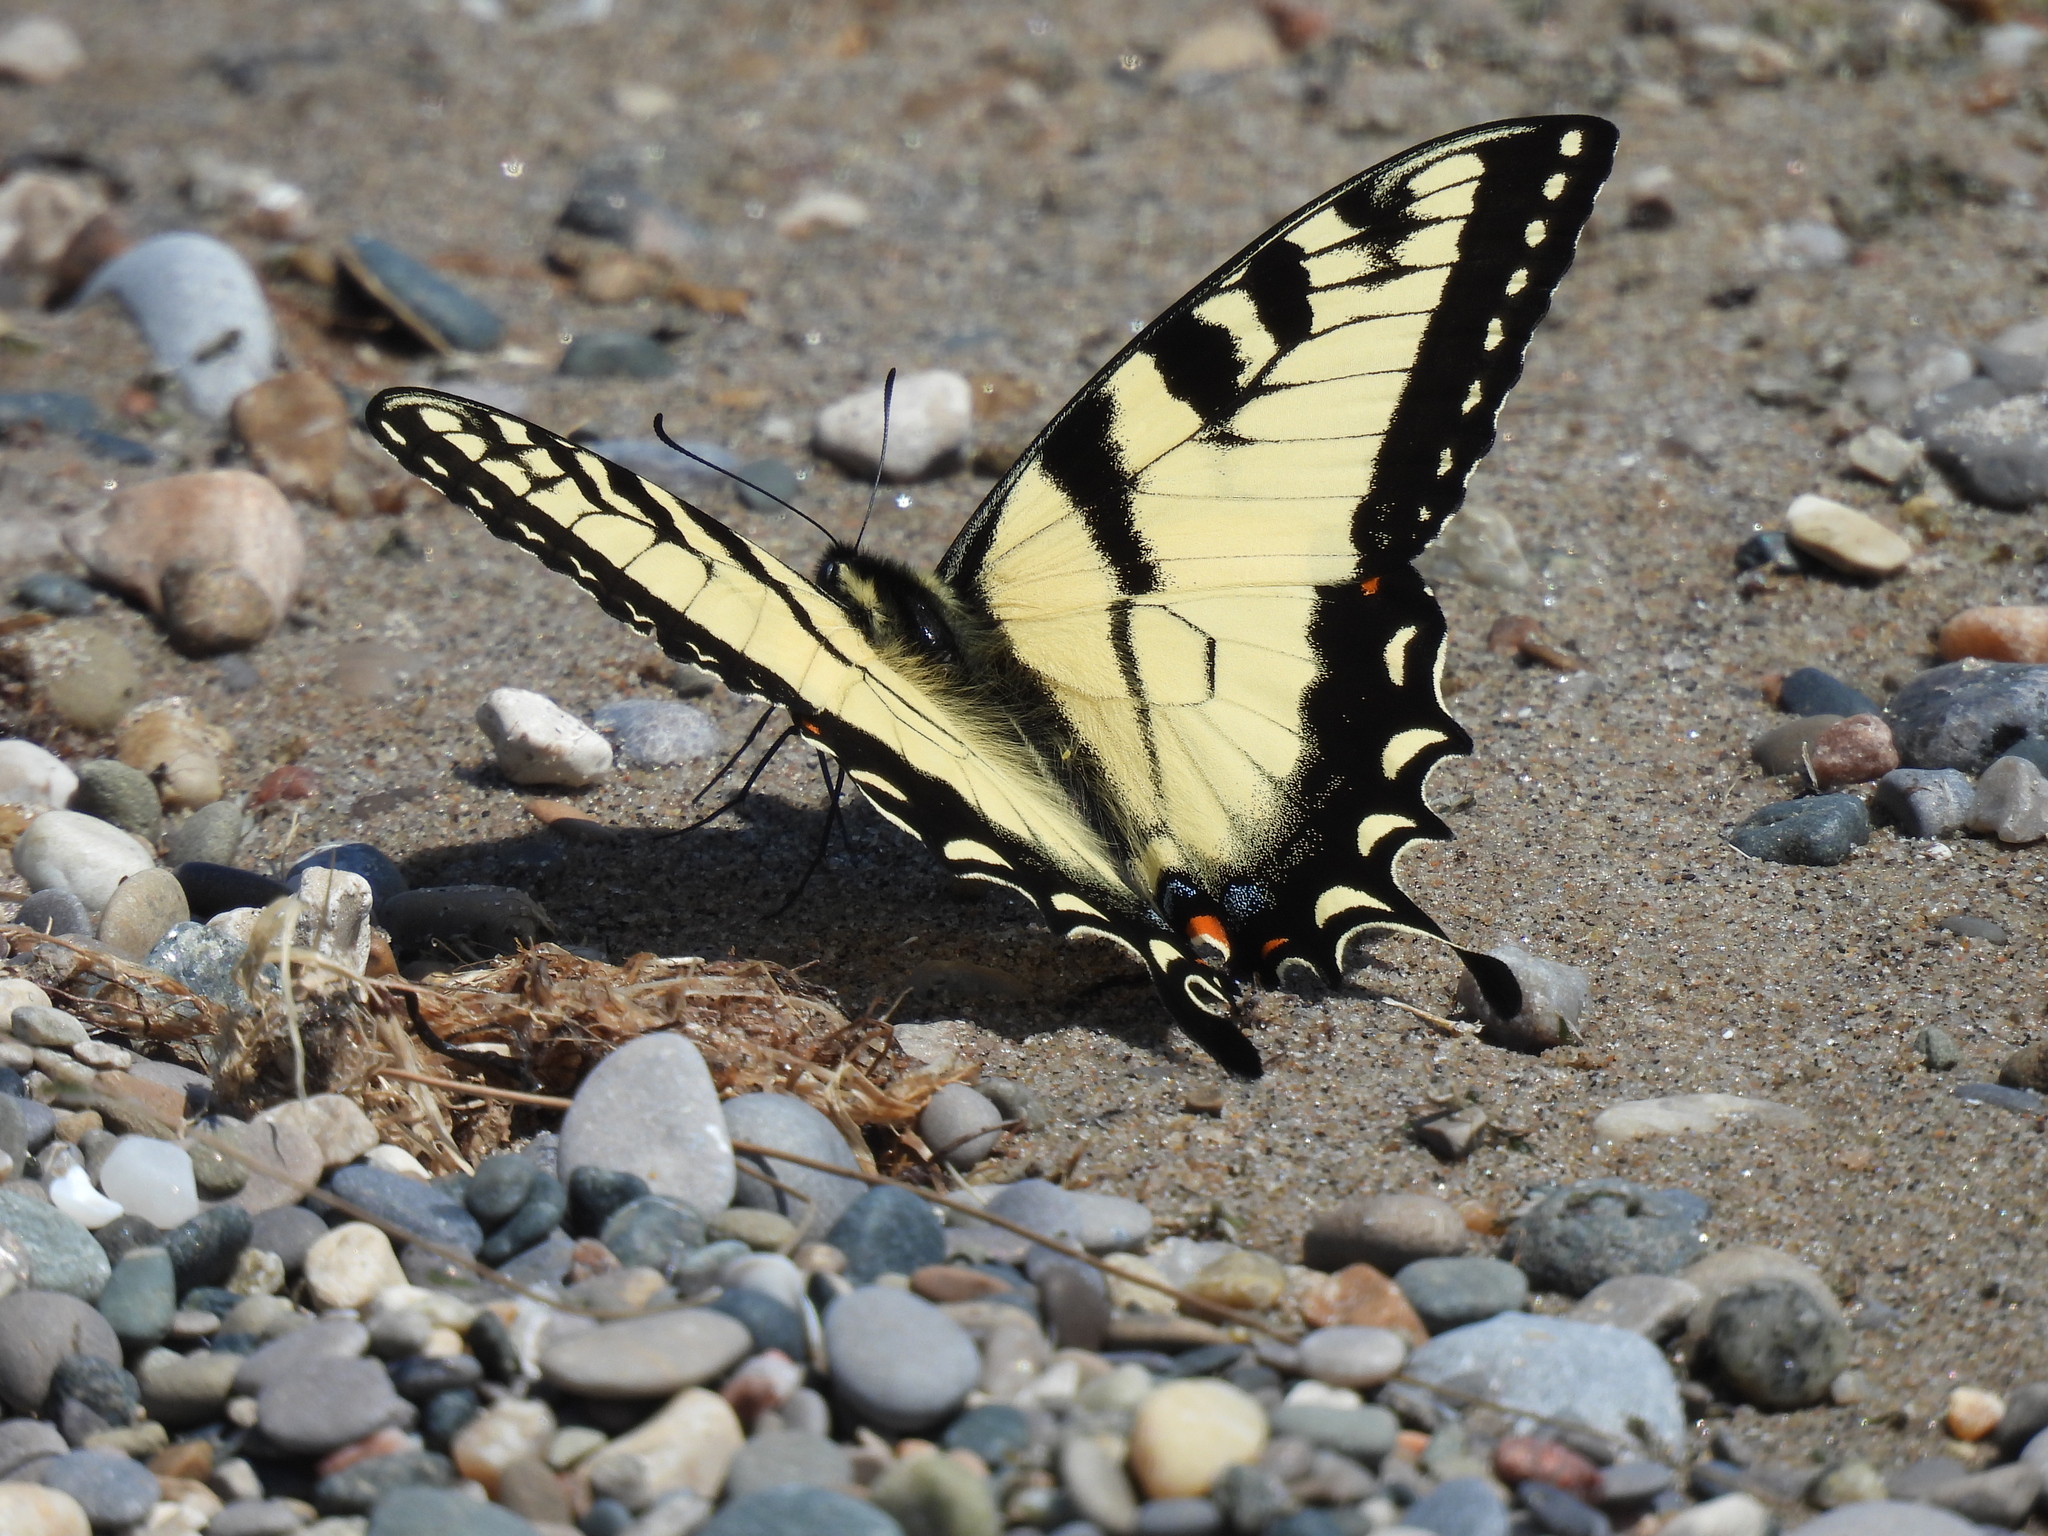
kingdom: Animalia
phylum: Arthropoda
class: Insecta
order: Lepidoptera
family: Papilionidae
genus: Papilio
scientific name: Papilio glaucus
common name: Tiger swallowtail
